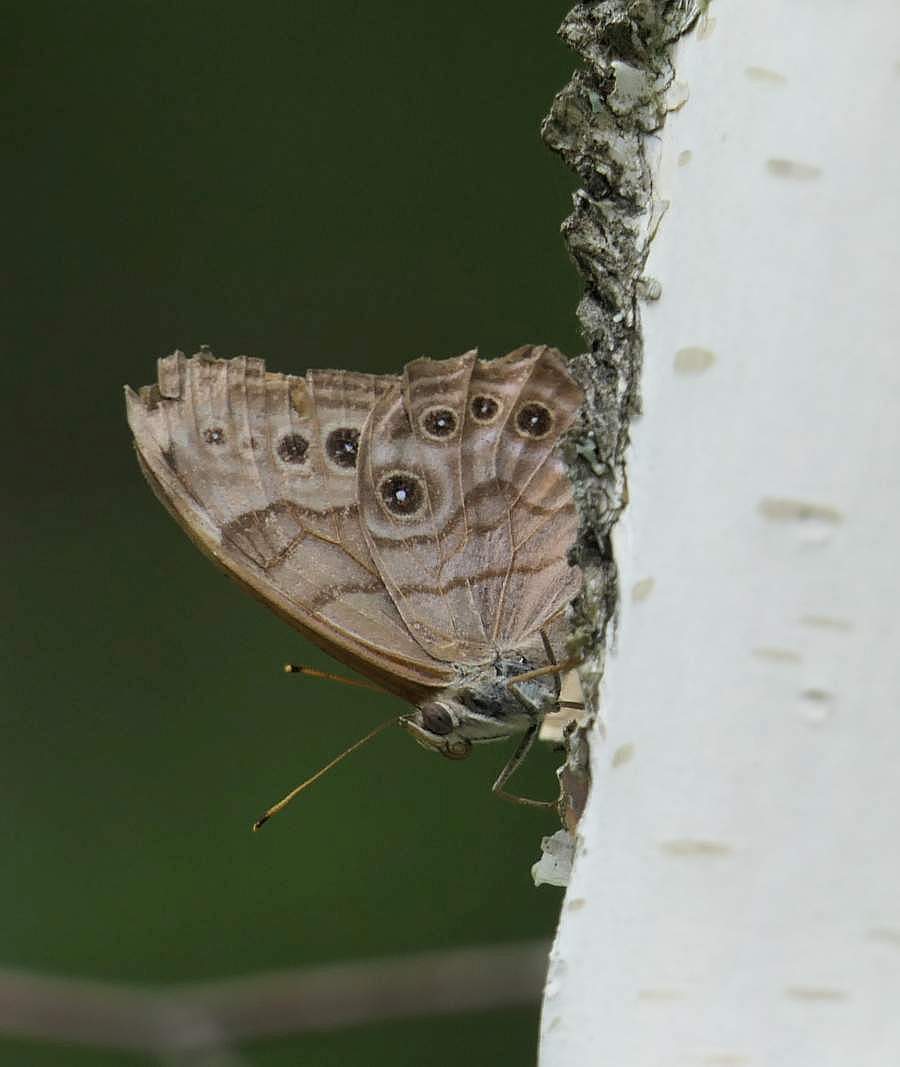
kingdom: Animalia
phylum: Arthropoda
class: Insecta
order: Lepidoptera
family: Nymphalidae
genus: Lethe
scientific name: Lethe anthedon
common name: Northern pearly-eye
